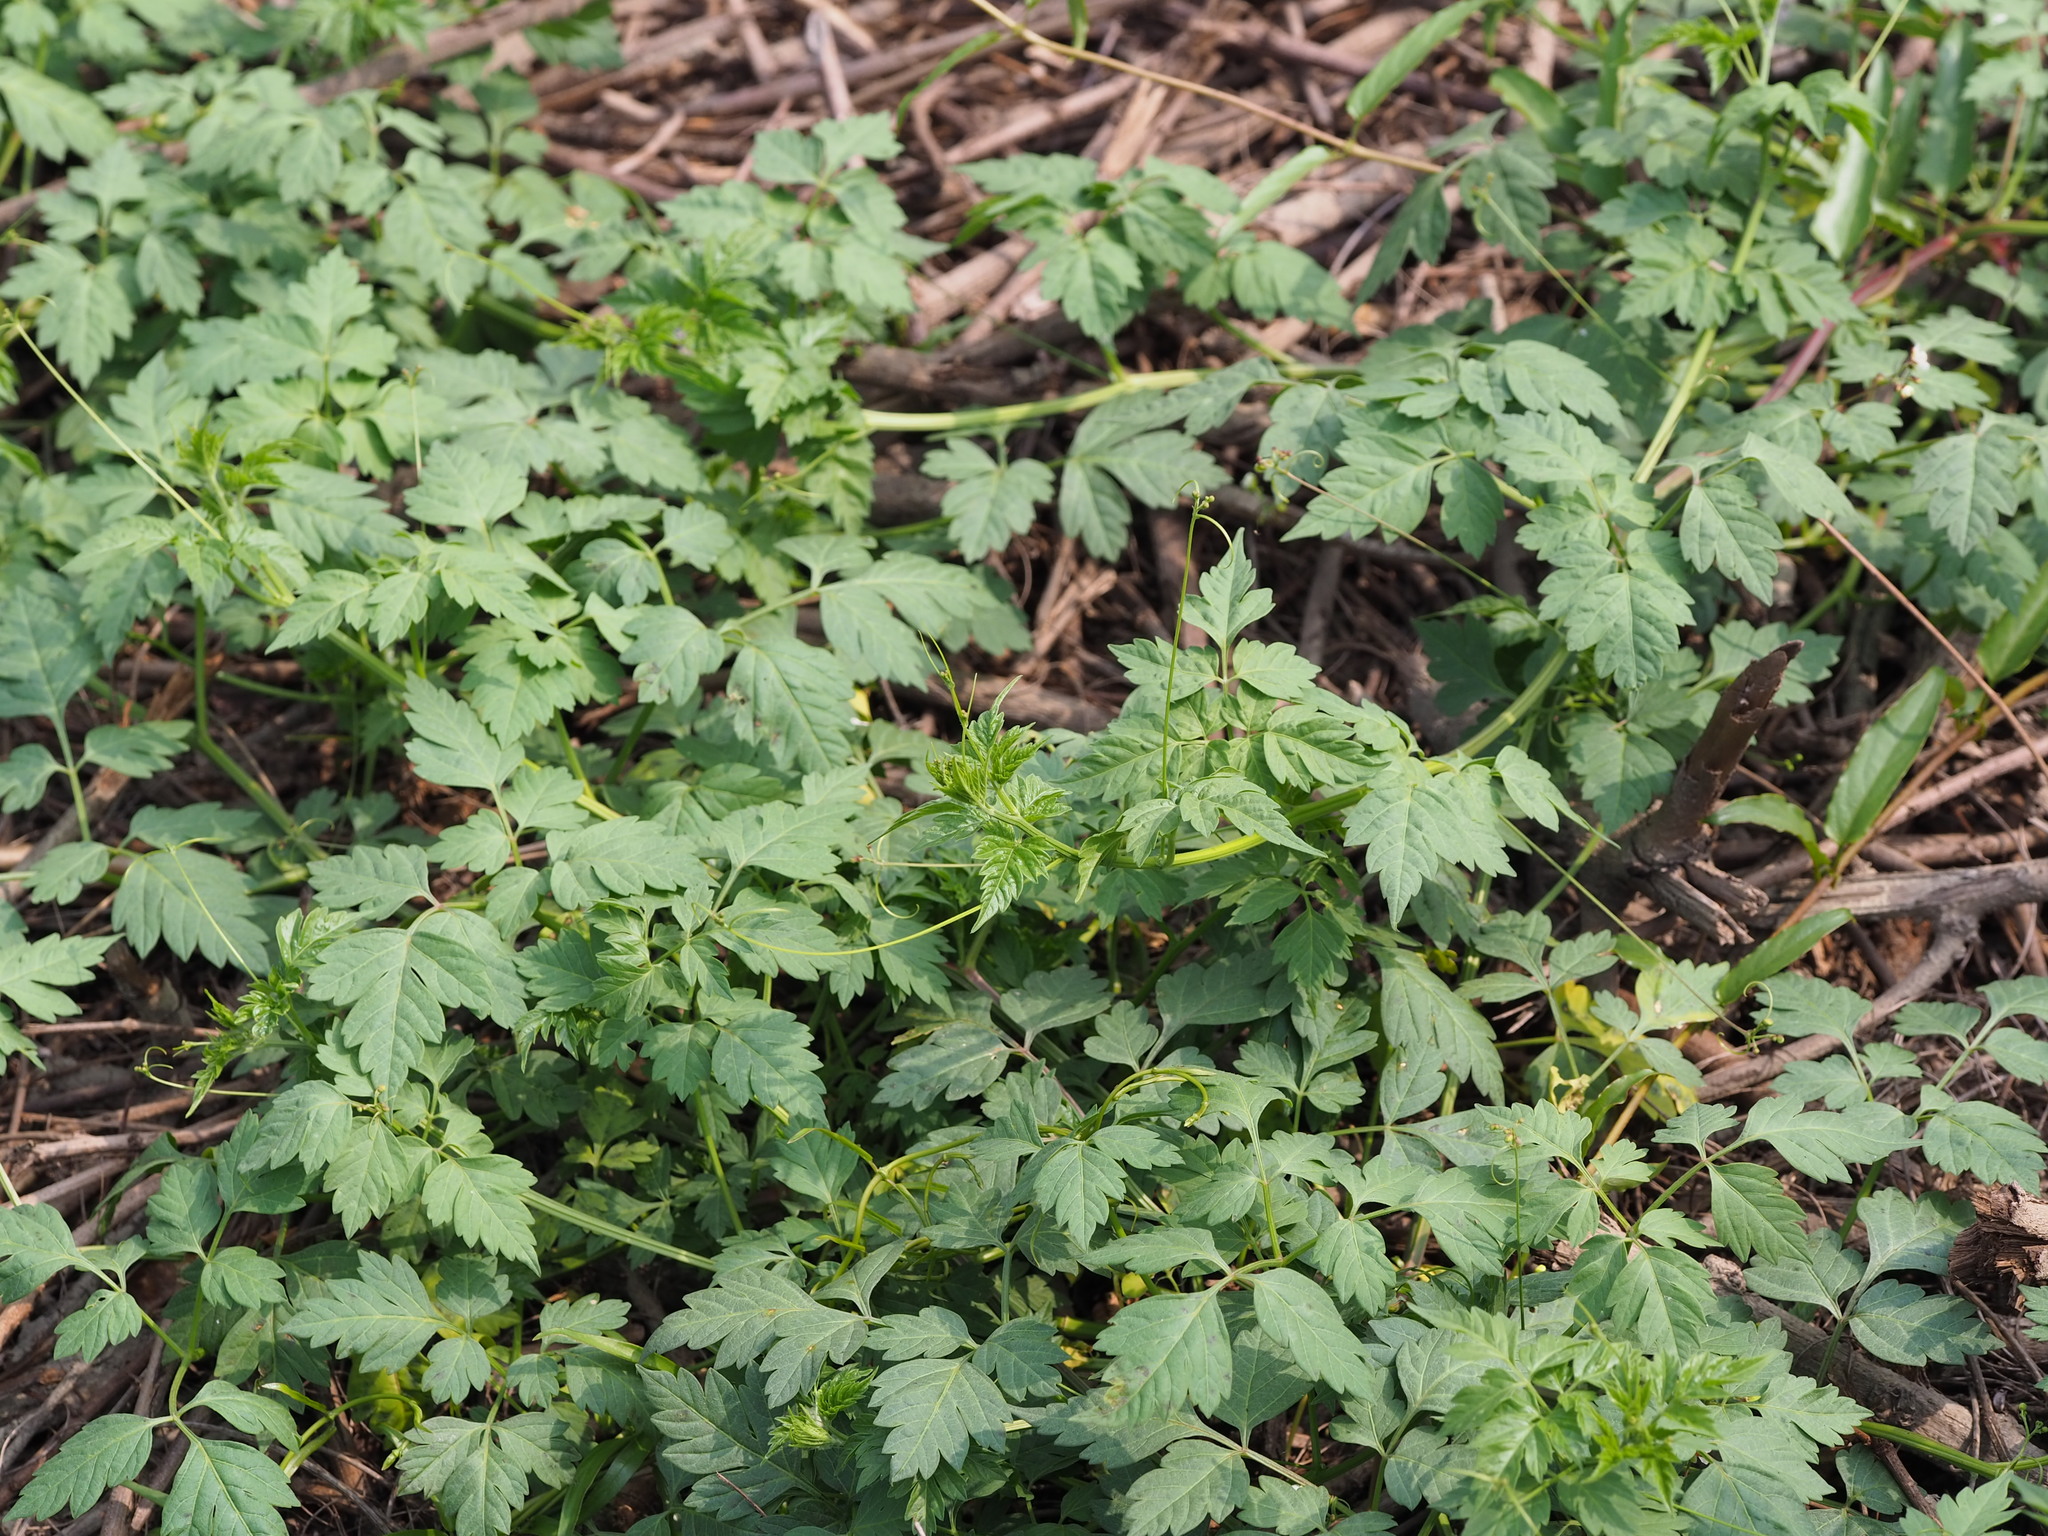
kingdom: Plantae
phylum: Tracheophyta
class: Magnoliopsida
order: Sapindales
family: Sapindaceae
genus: Cardiospermum
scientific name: Cardiospermum halicacabum
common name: Balloon vine
